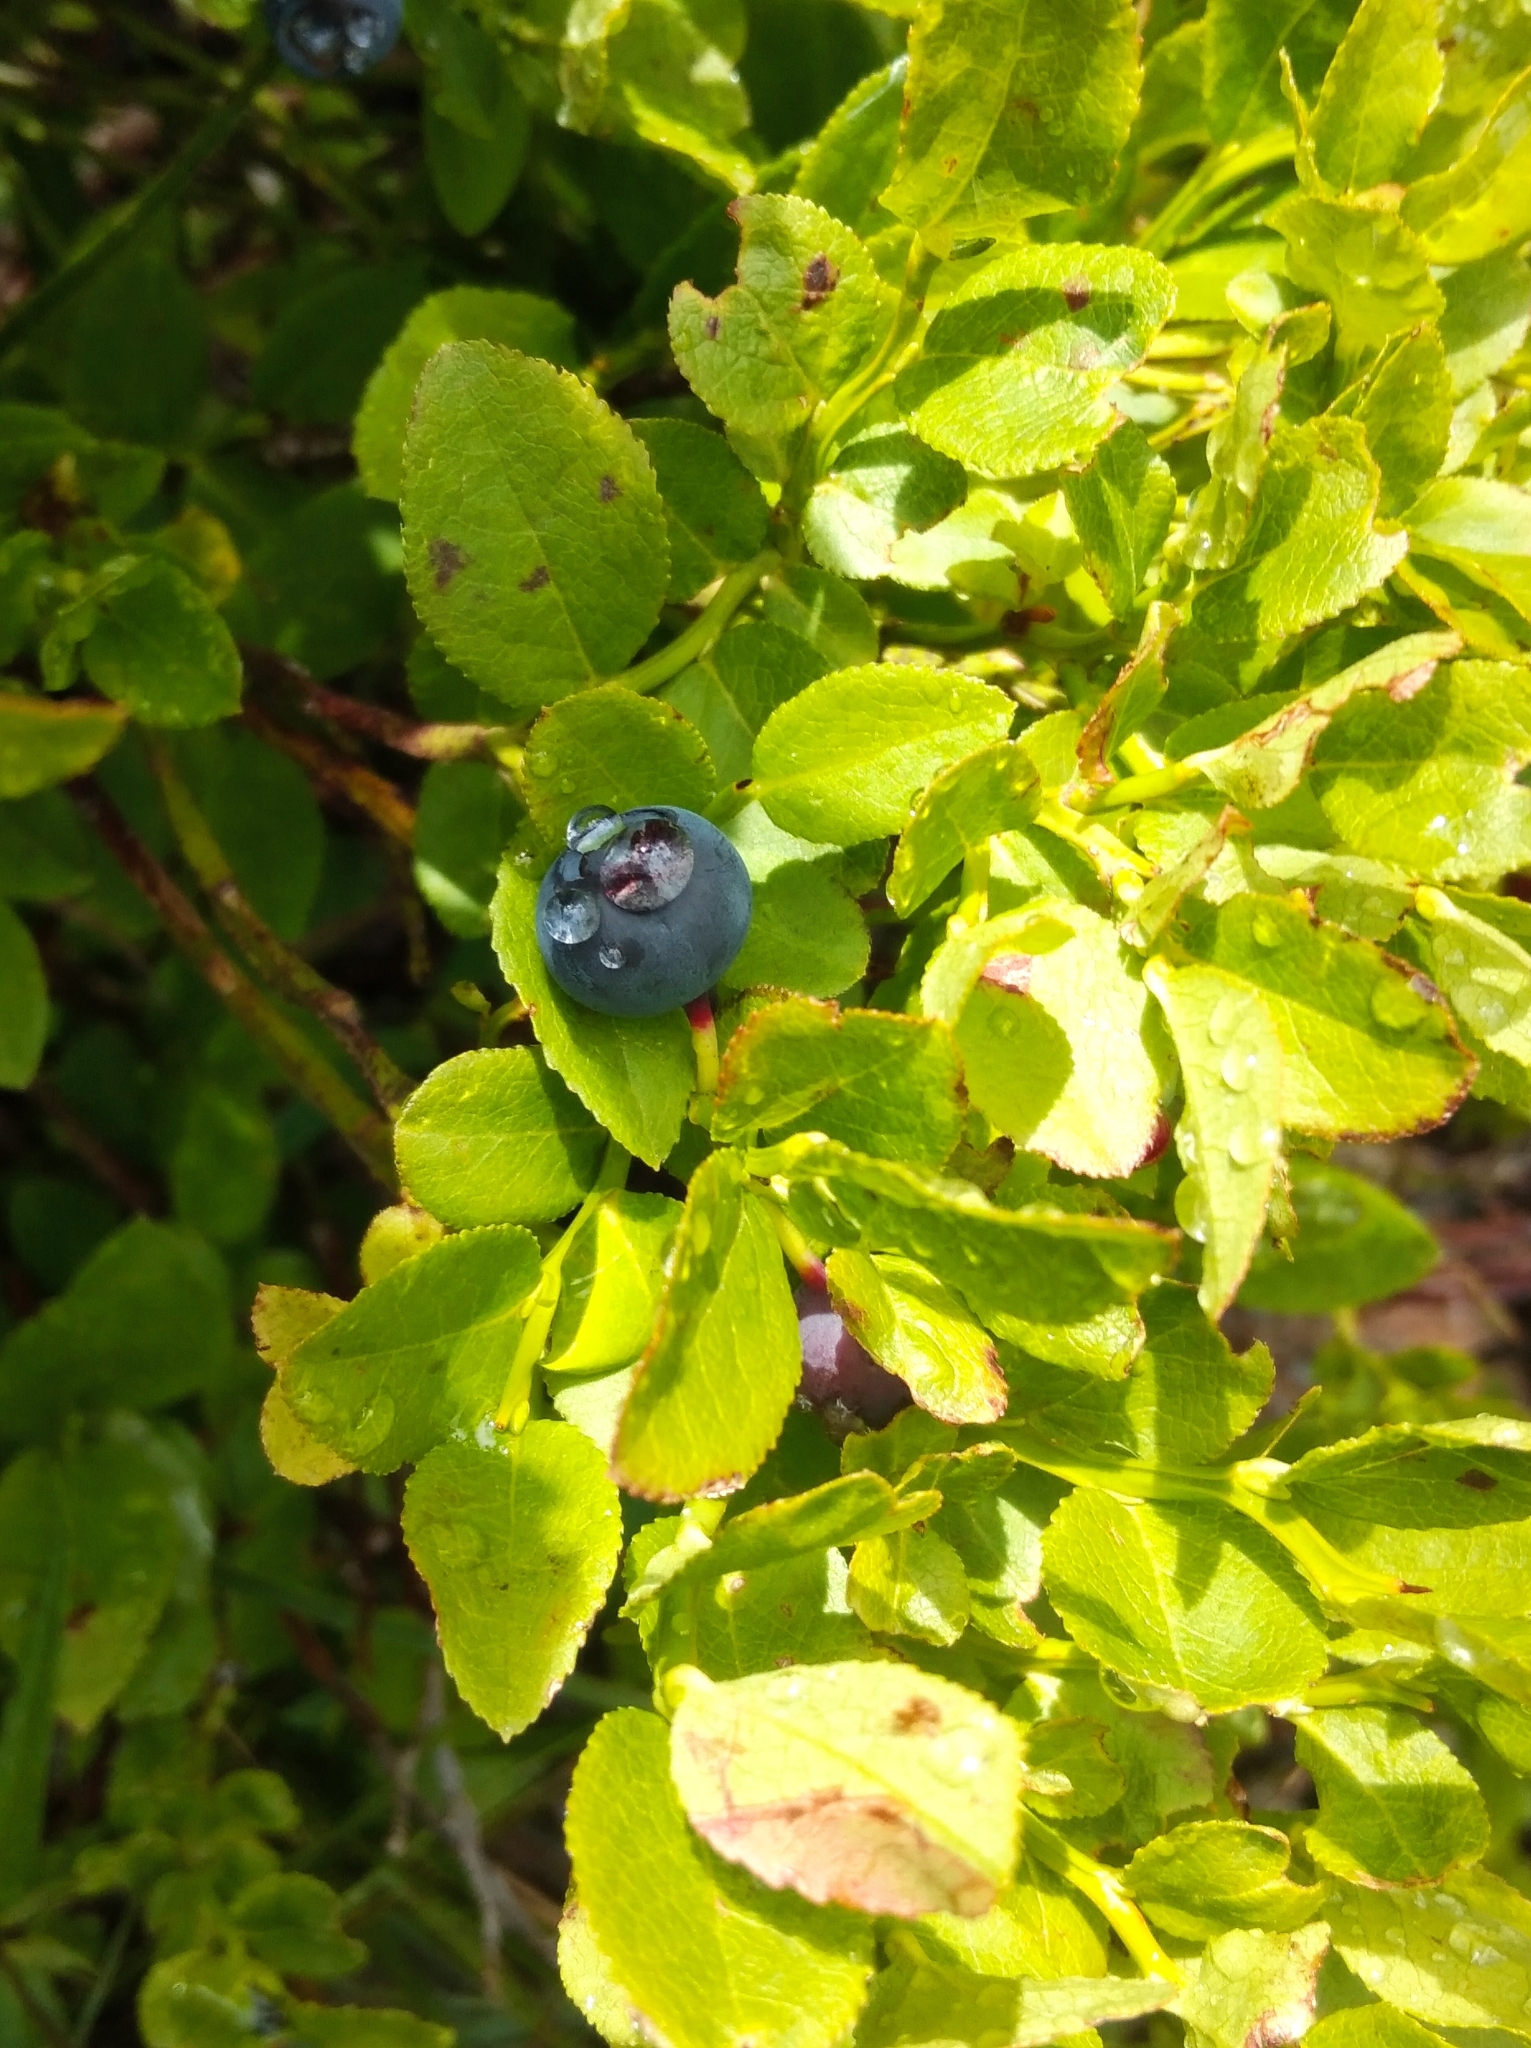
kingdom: Plantae
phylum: Tracheophyta
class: Magnoliopsida
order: Ericales
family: Ericaceae
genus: Vaccinium
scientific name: Vaccinium myrtillus
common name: Bilberry
